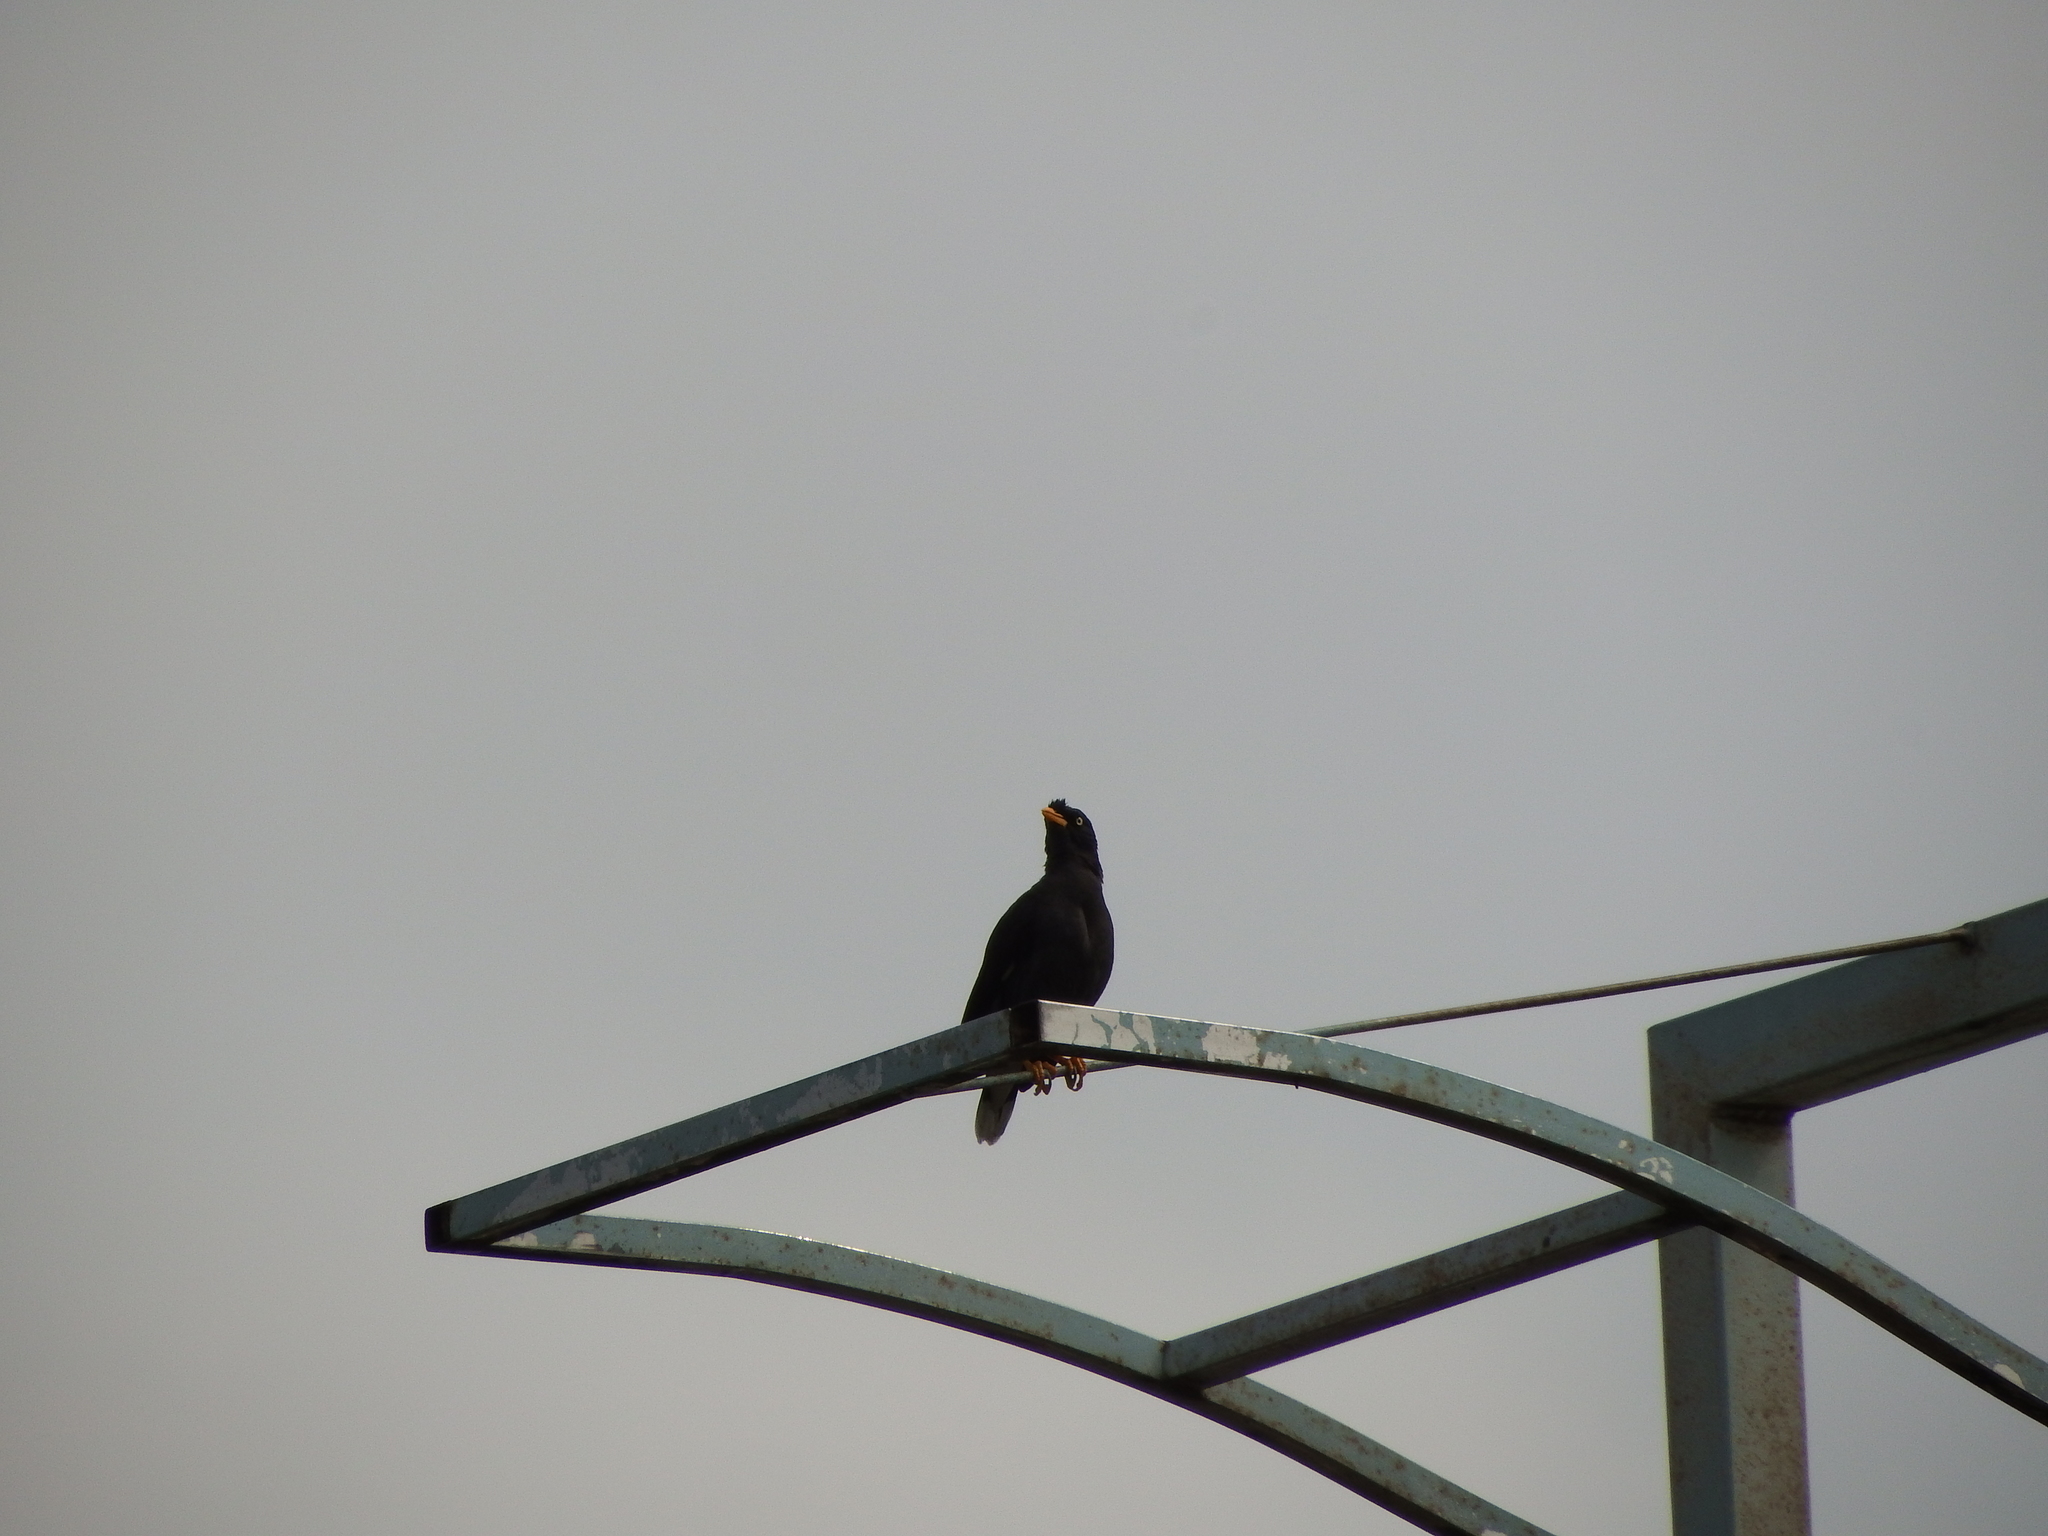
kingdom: Animalia
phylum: Chordata
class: Aves
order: Passeriformes
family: Sturnidae
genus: Acridotheres
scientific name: Acridotheres javanicus
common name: Javan myna
